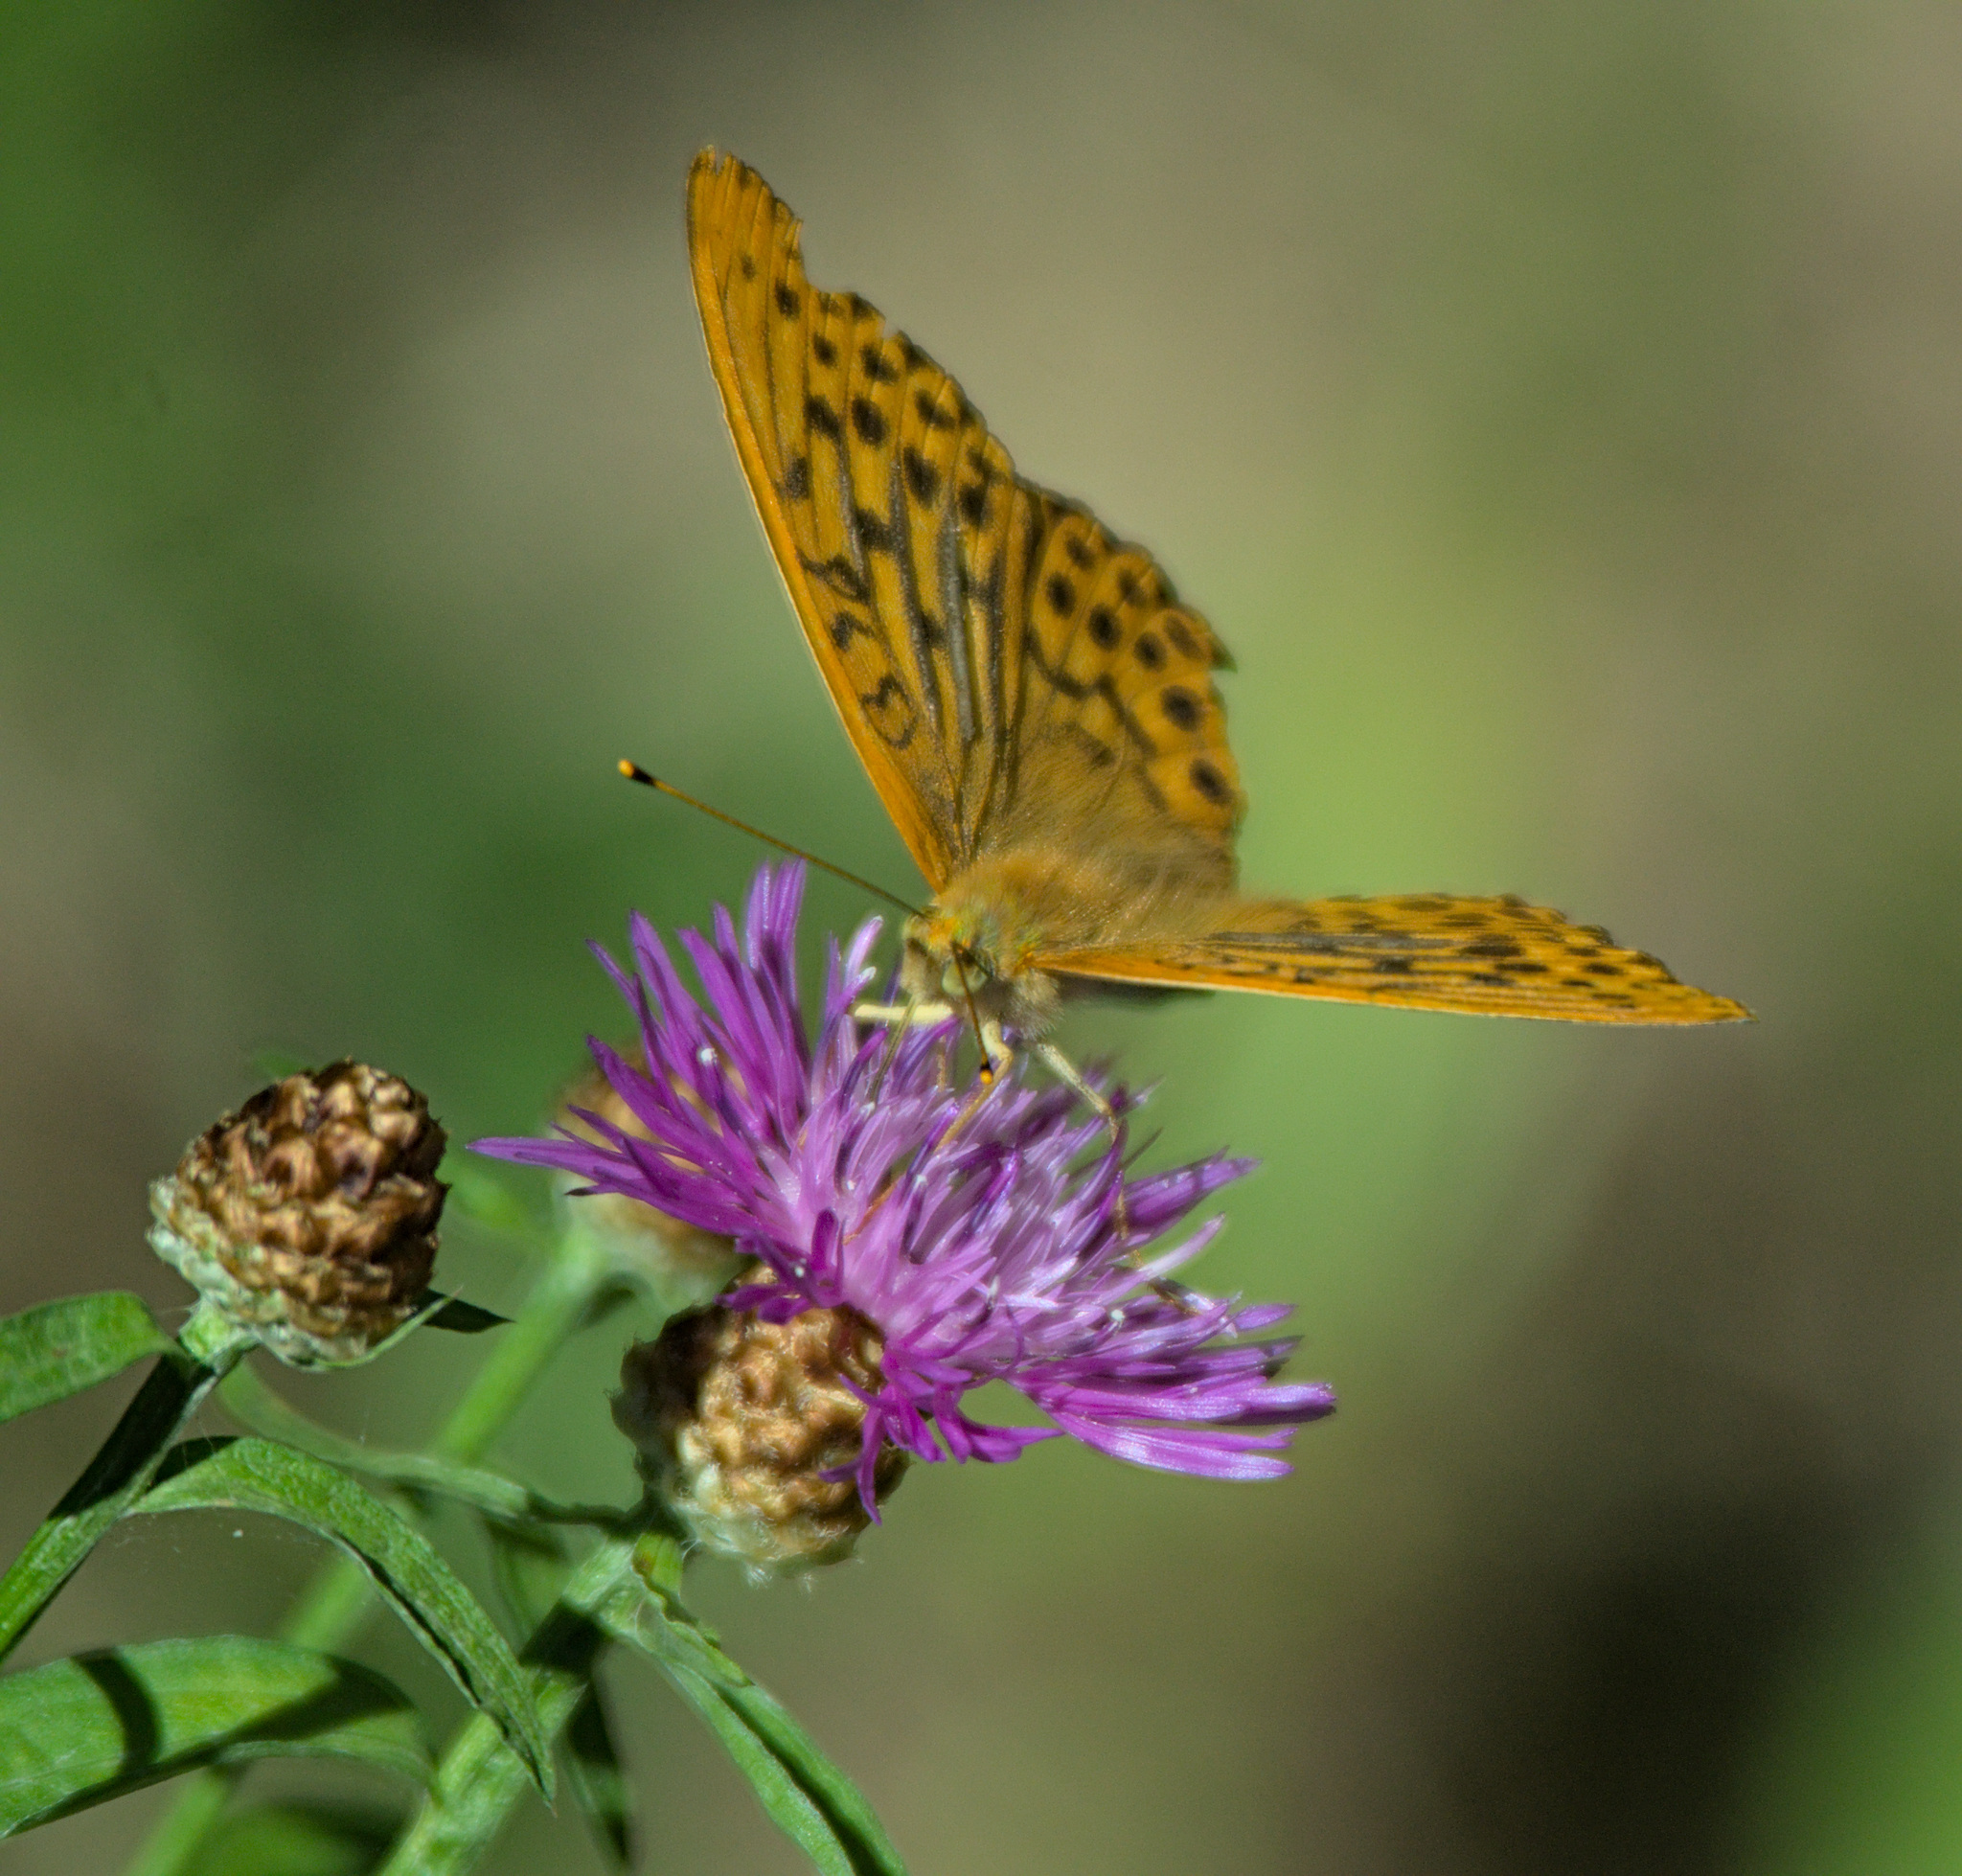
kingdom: Animalia
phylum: Arthropoda
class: Insecta
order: Lepidoptera
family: Nymphalidae
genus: Argynnis
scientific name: Argynnis paphia
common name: Silver-washed fritillary
